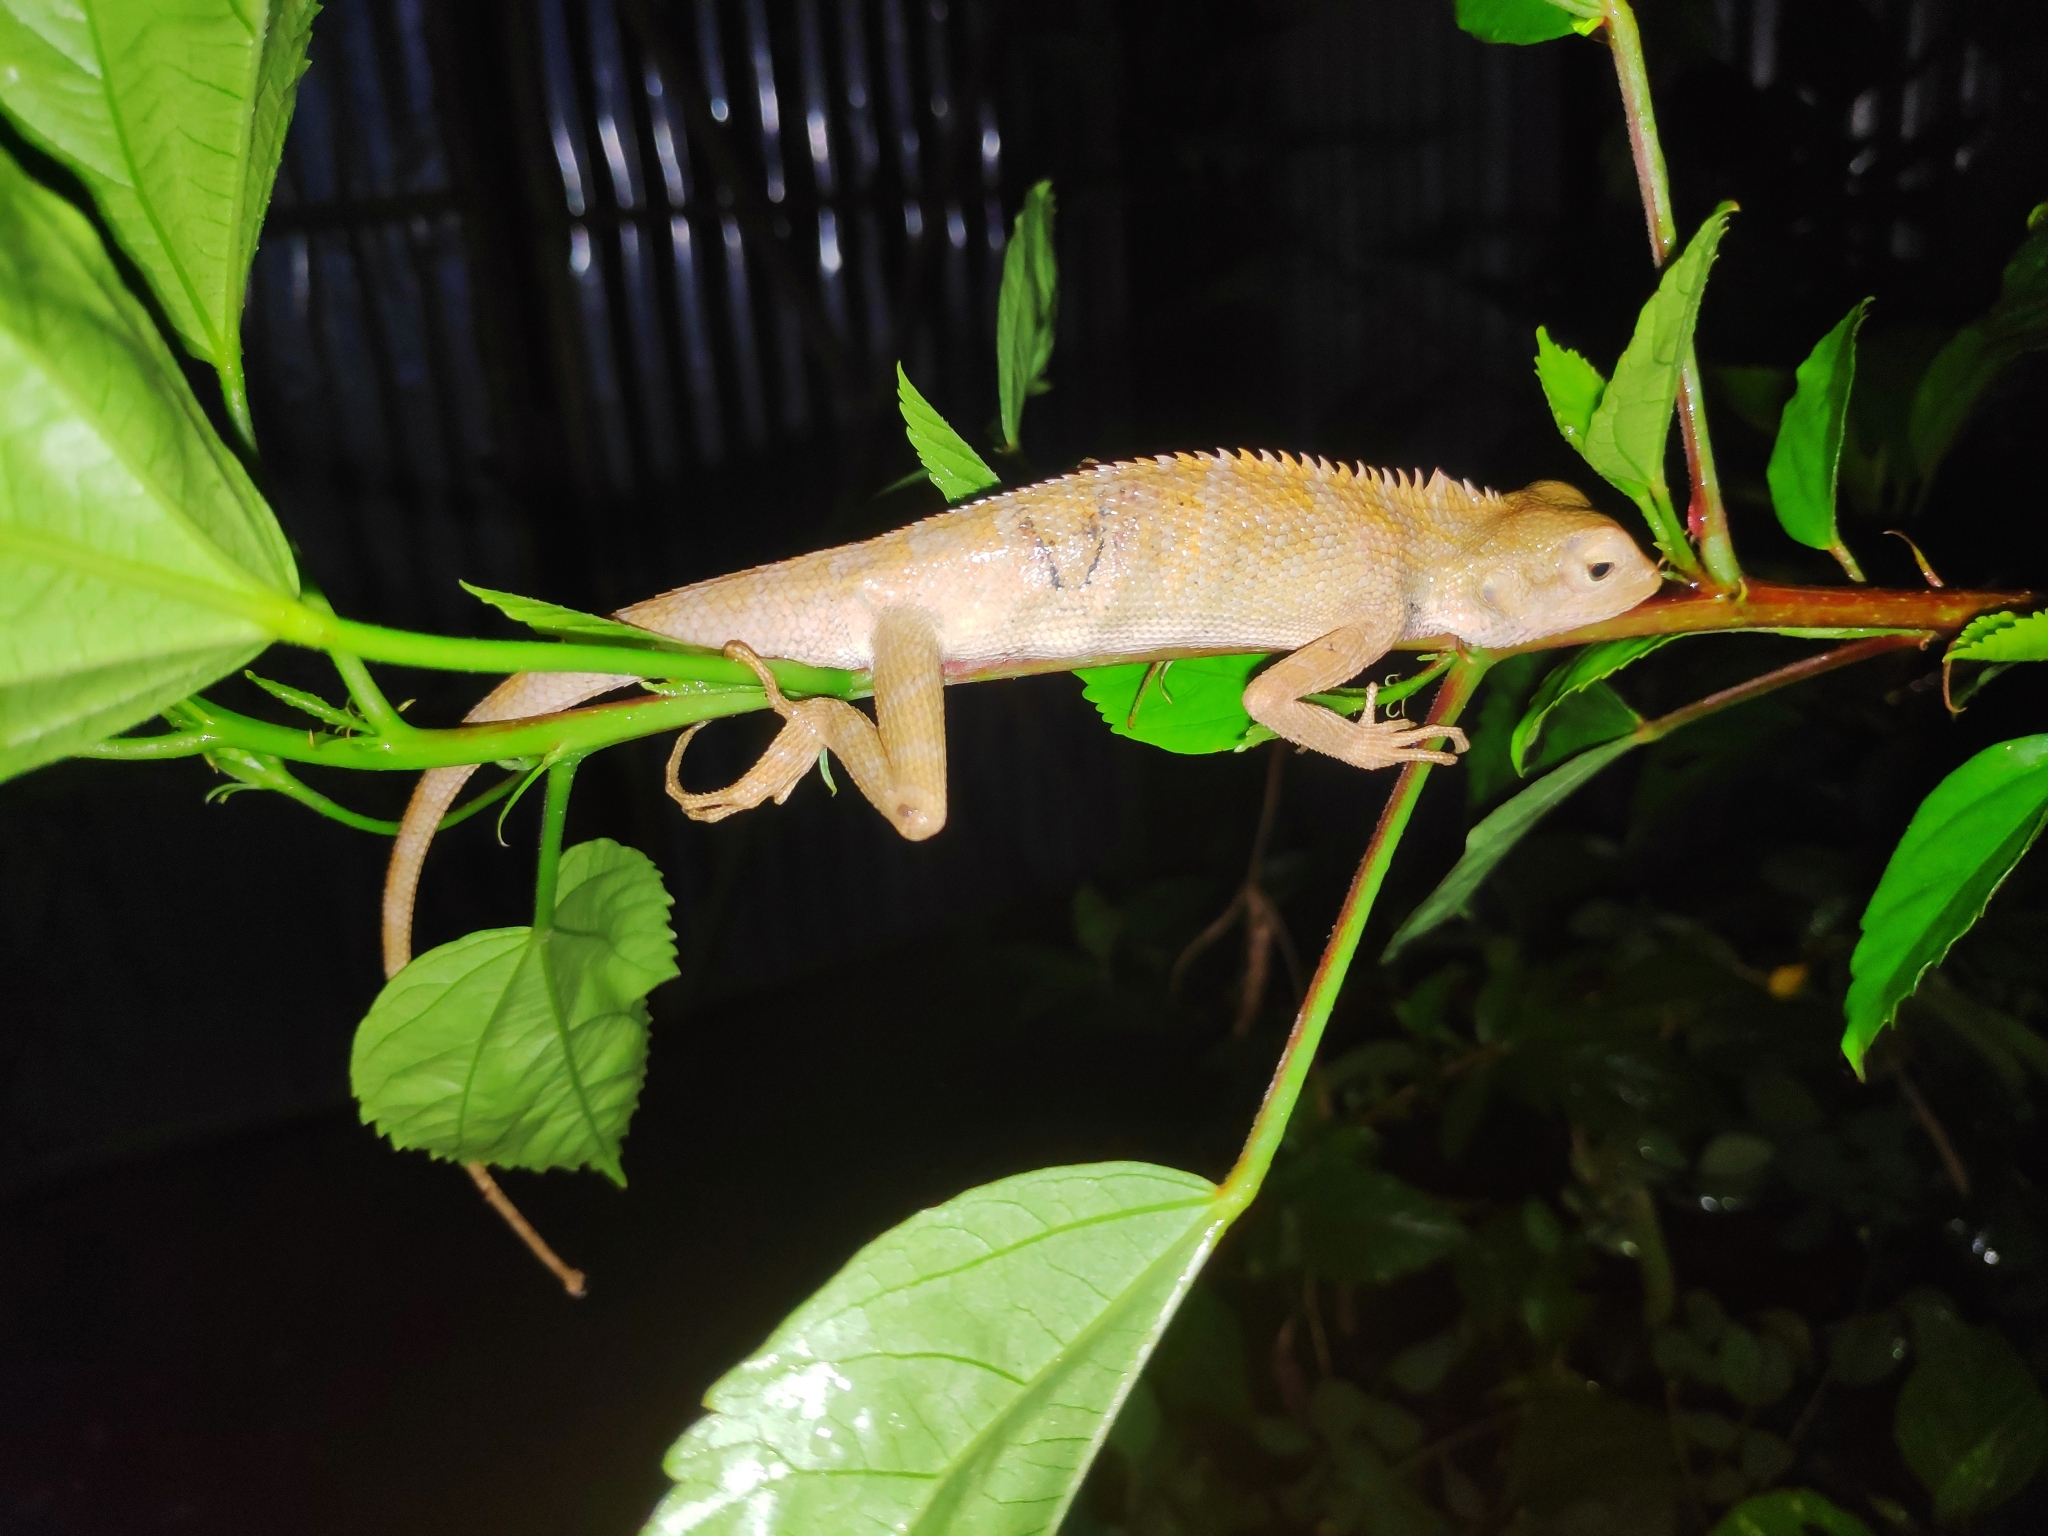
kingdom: Animalia
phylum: Chordata
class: Squamata
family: Agamidae
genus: Calotes
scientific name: Calotes versicolor
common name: Oriental garden lizard
